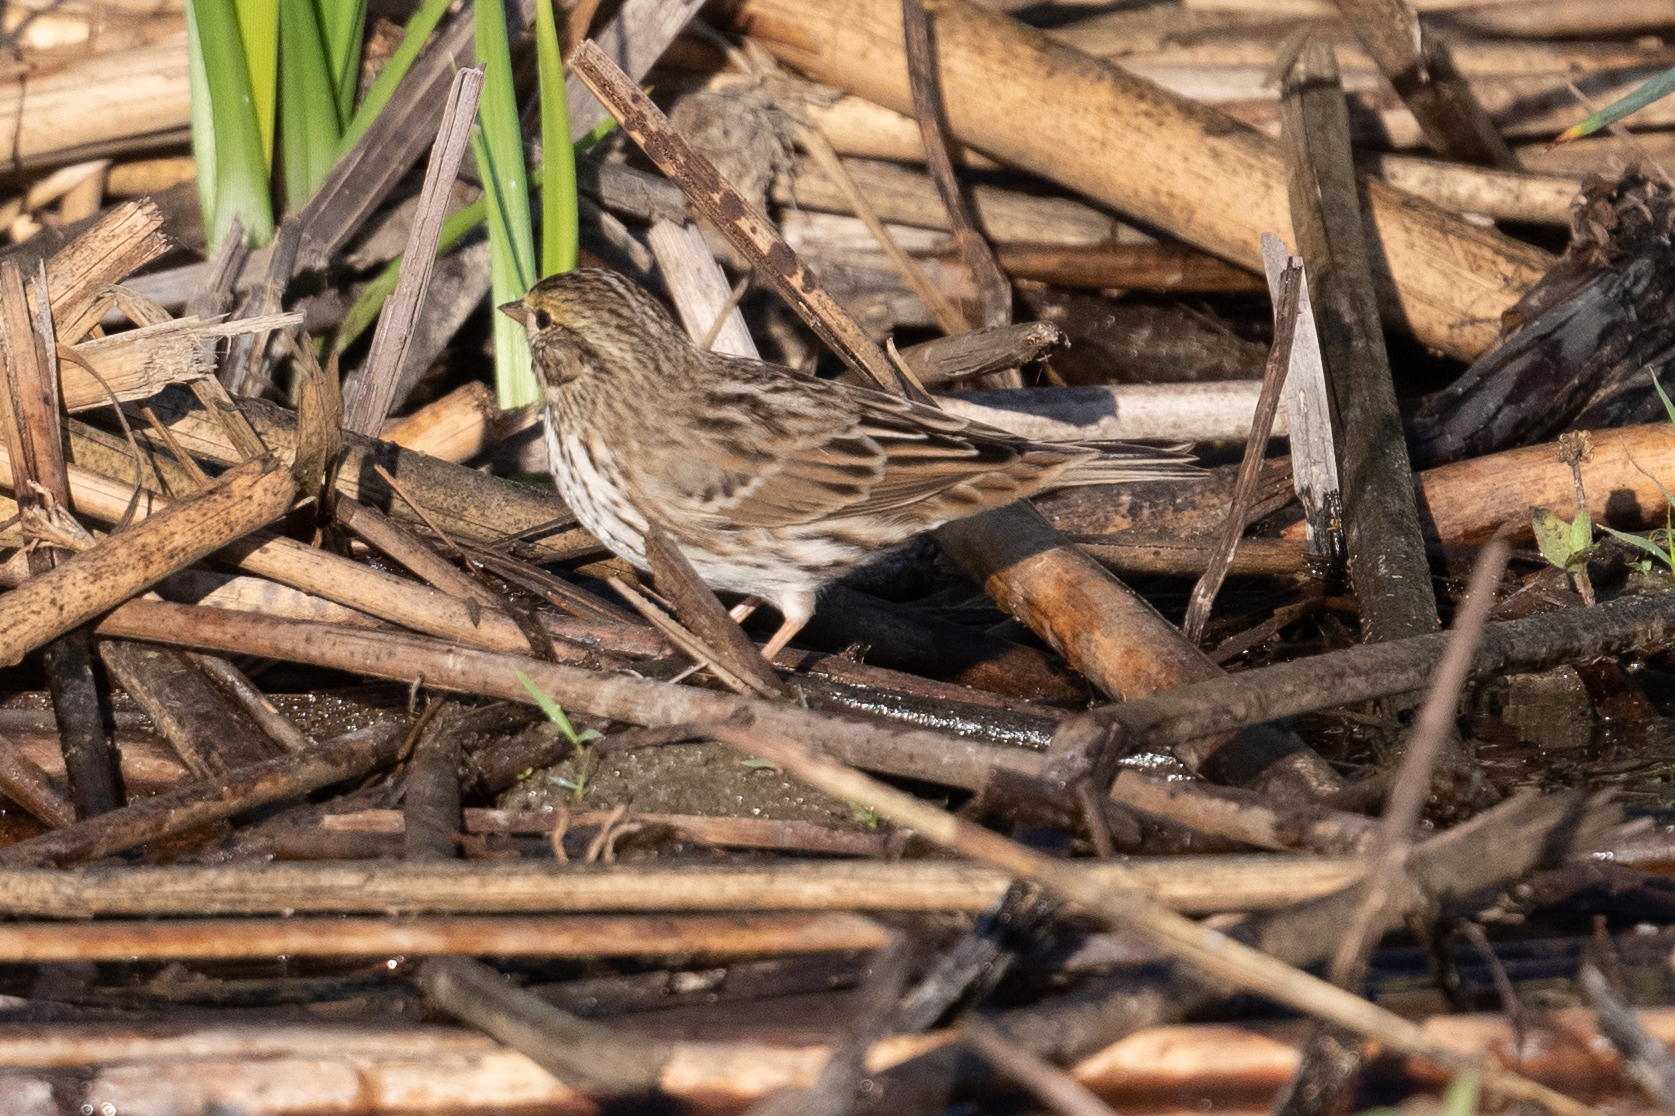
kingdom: Animalia
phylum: Chordata
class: Aves
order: Passeriformes
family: Passerellidae
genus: Passerculus
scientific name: Passerculus sandwichensis
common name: Savannah sparrow
